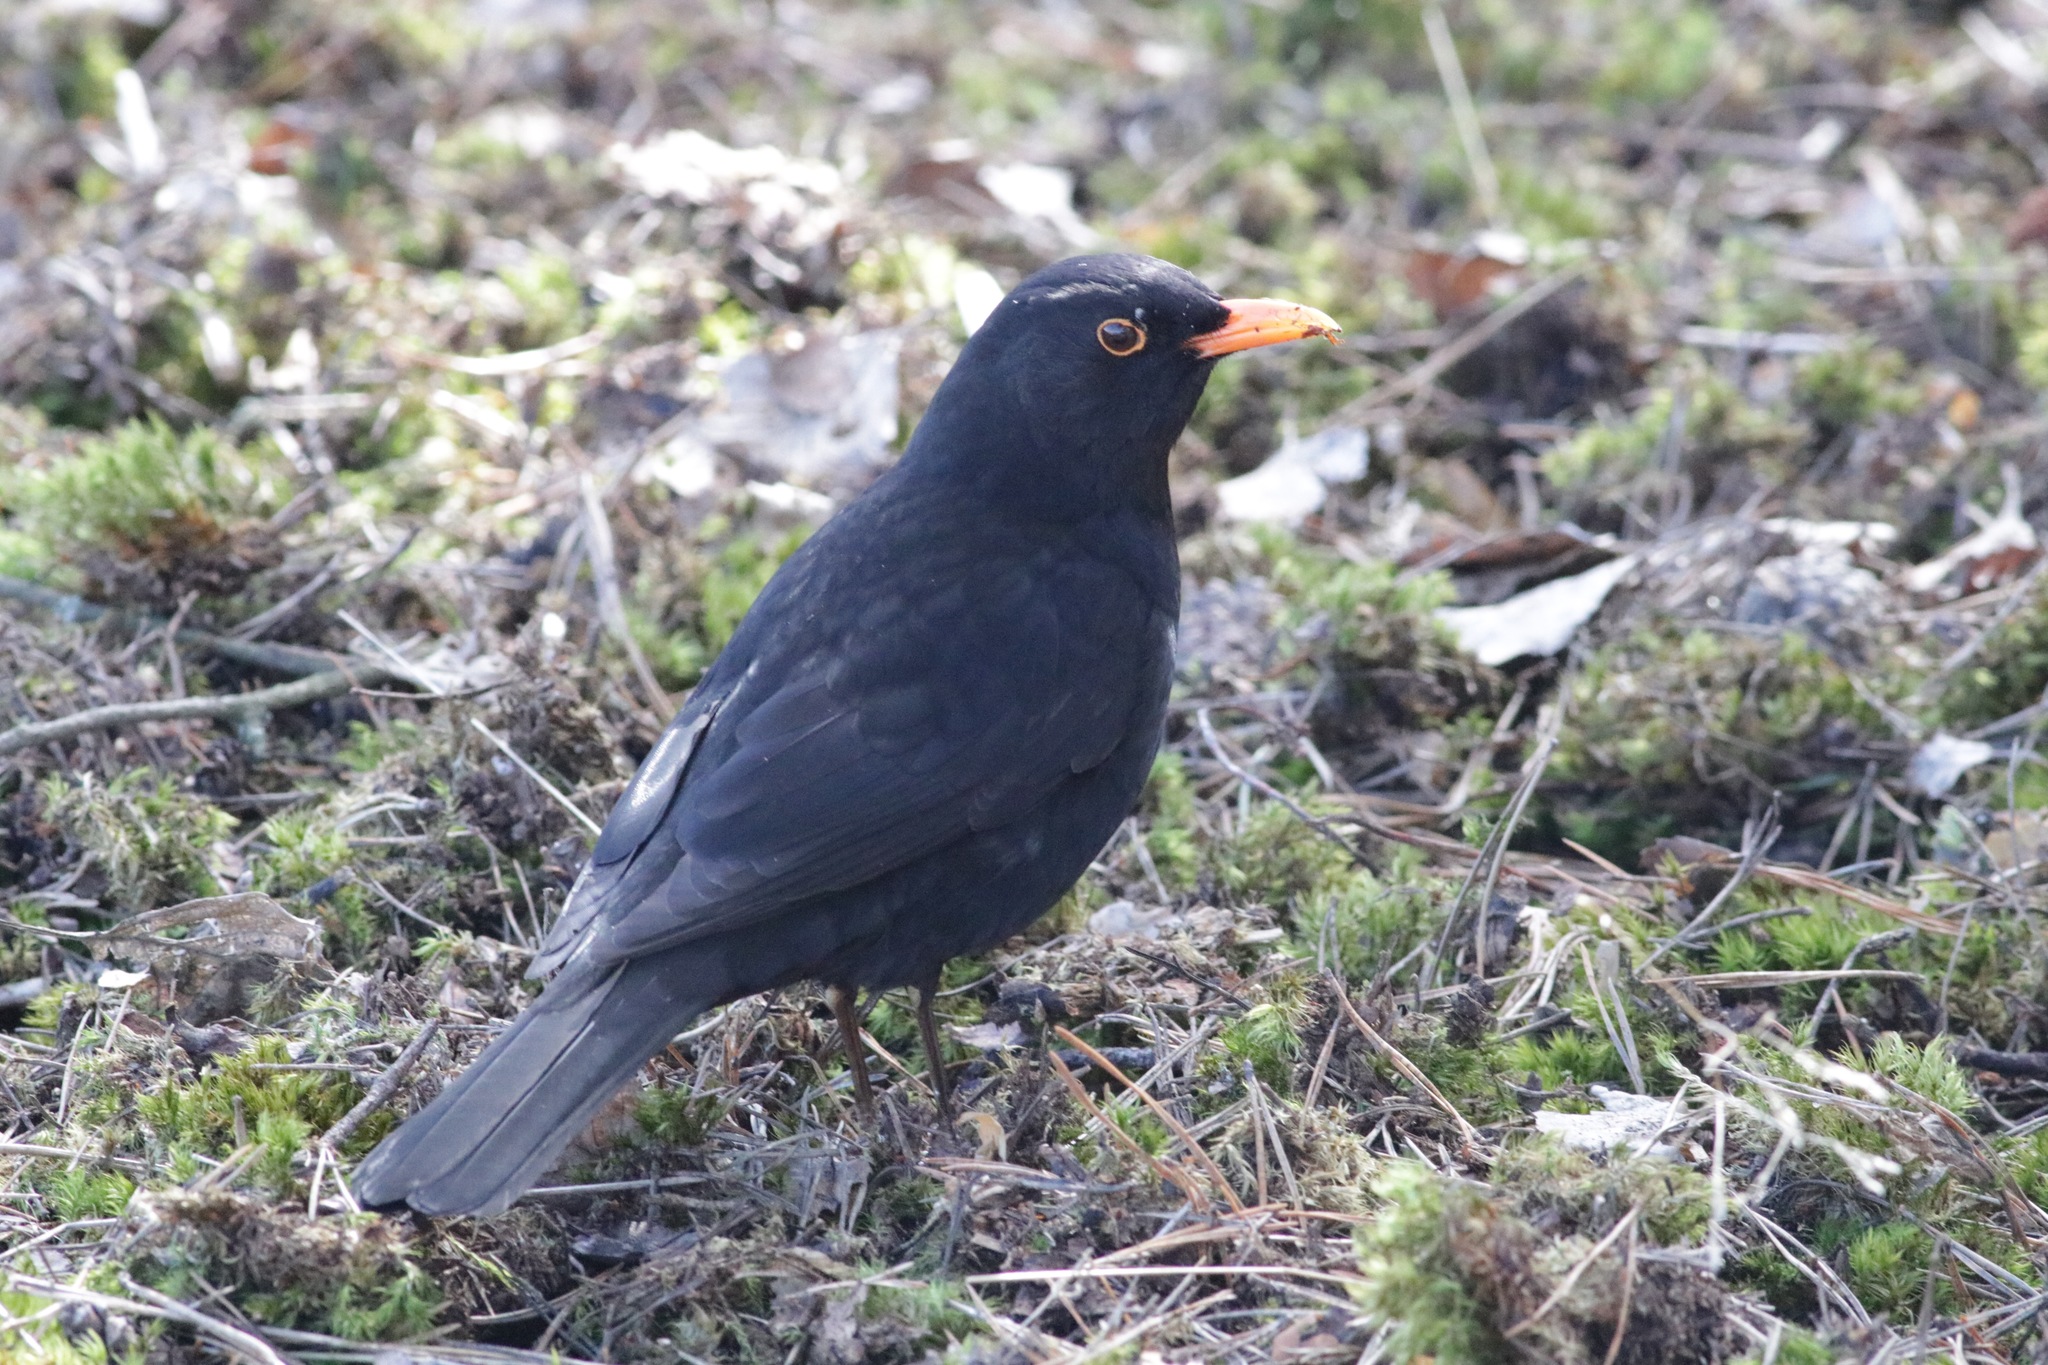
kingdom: Animalia
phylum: Chordata
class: Aves
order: Passeriformes
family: Turdidae
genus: Turdus
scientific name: Turdus merula
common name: Common blackbird
